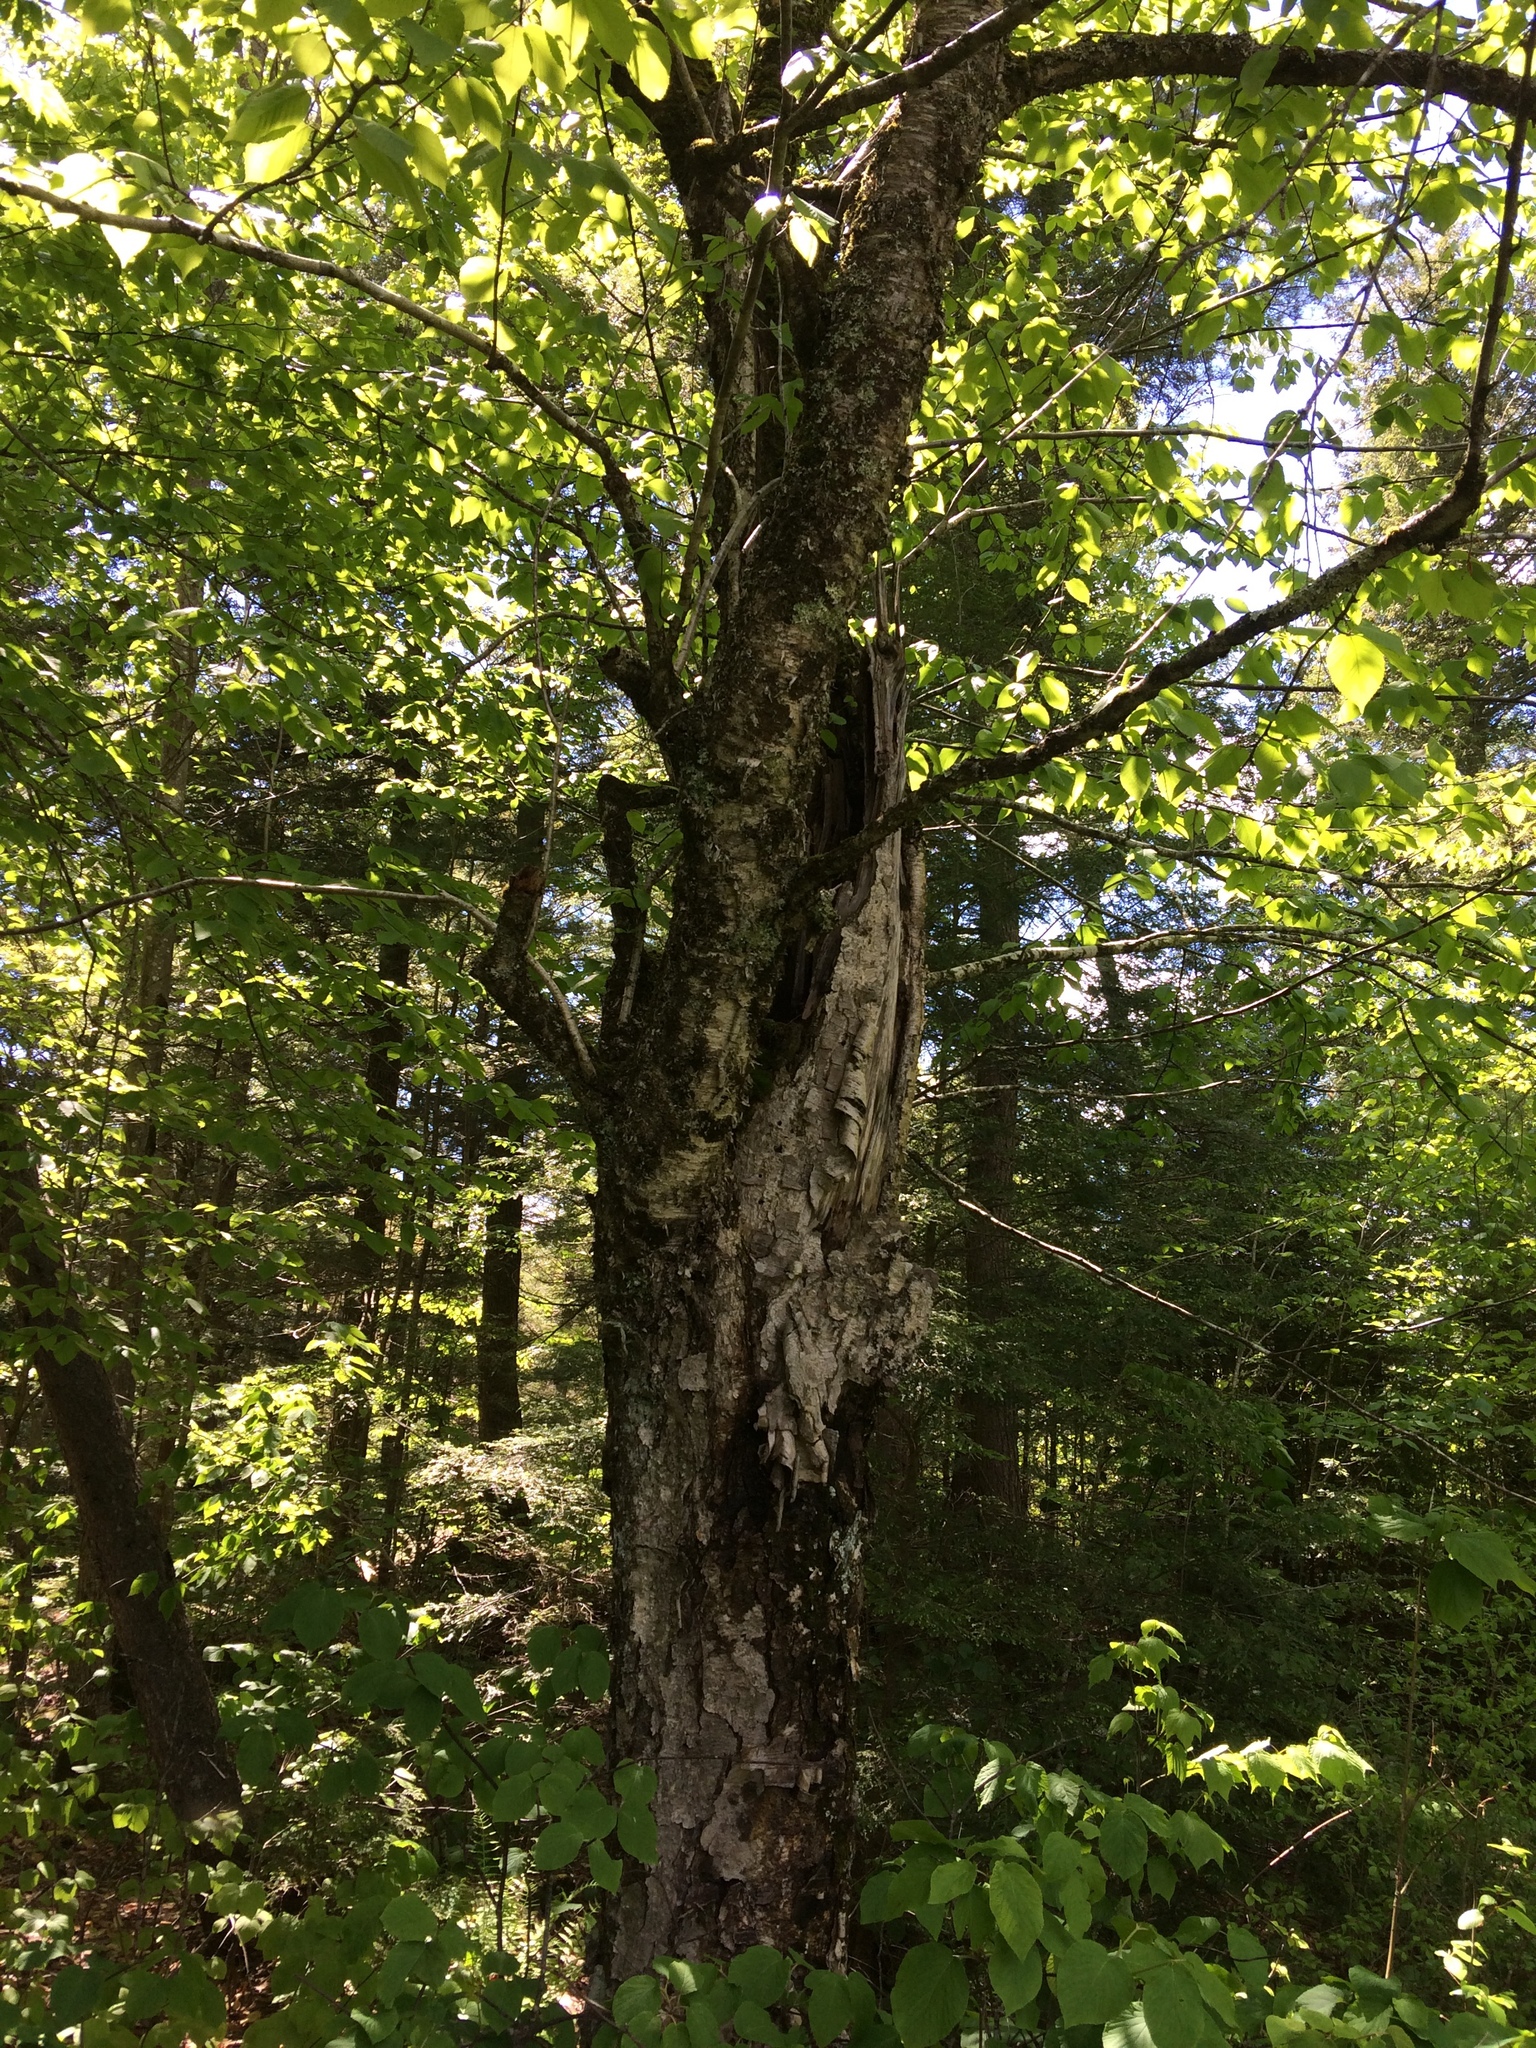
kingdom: Plantae
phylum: Tracheophyta
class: Magnoliopsida
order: Fagales
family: Betulaceae
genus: Betula
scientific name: Betula alleghaniensis
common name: Yellow birch
